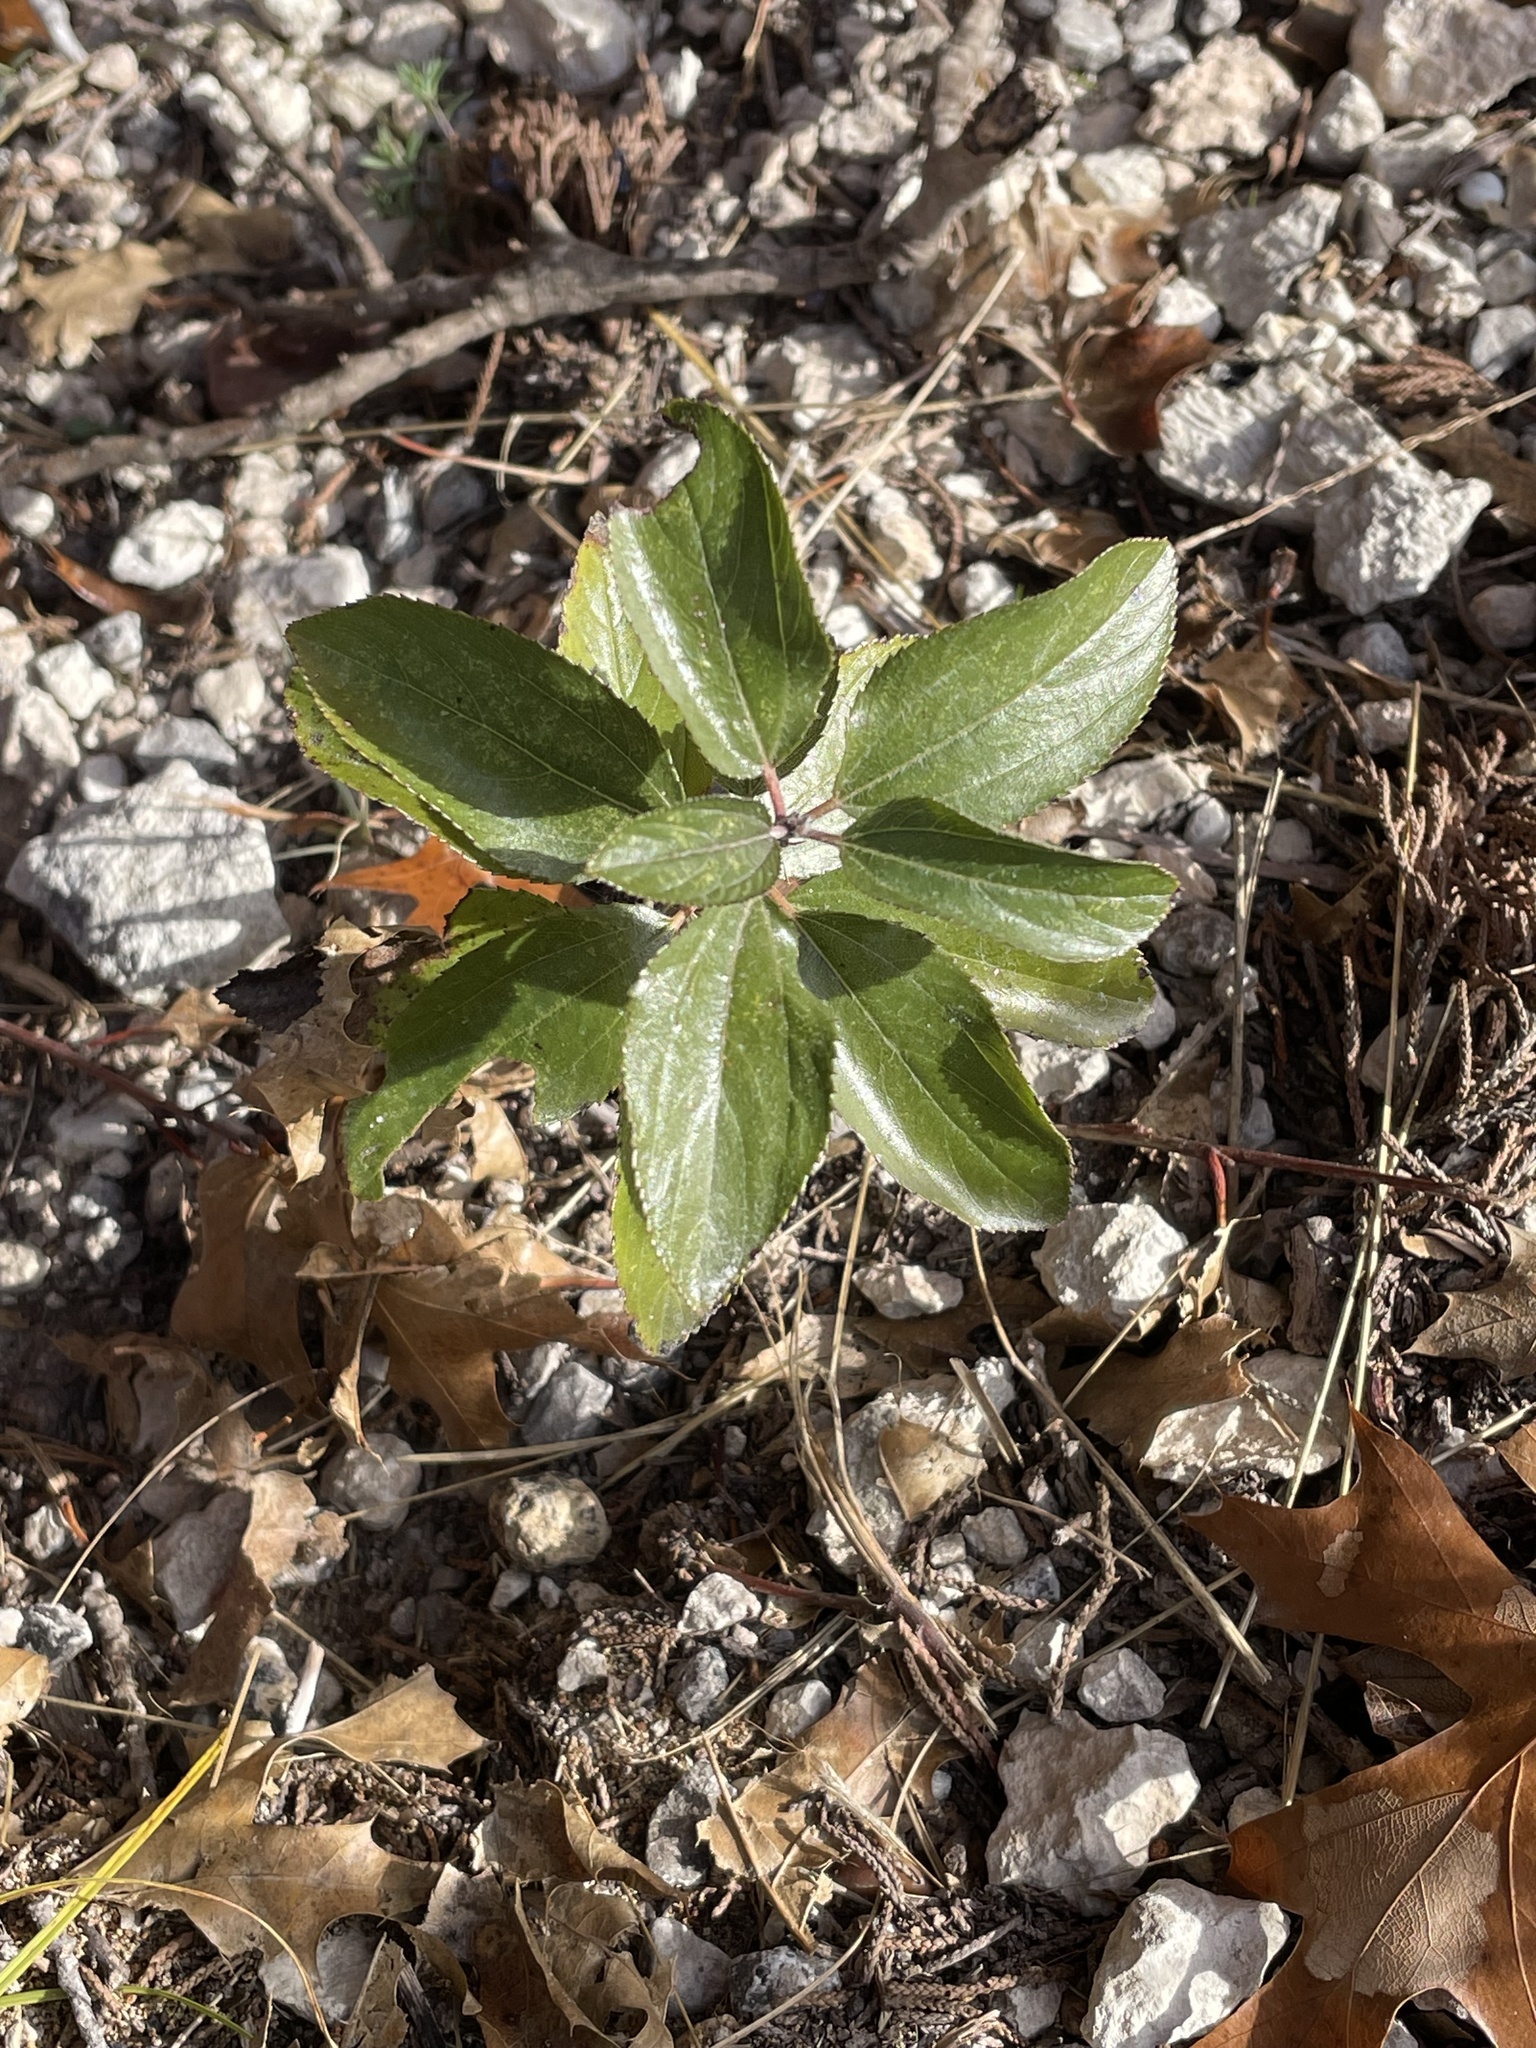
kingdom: Plantae
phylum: Tracheophyta
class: Magnoliopsida
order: Rosales
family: Rhamnaceae
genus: Ceanothus
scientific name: Ceanothus herbaceus
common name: Inland ceanothus
